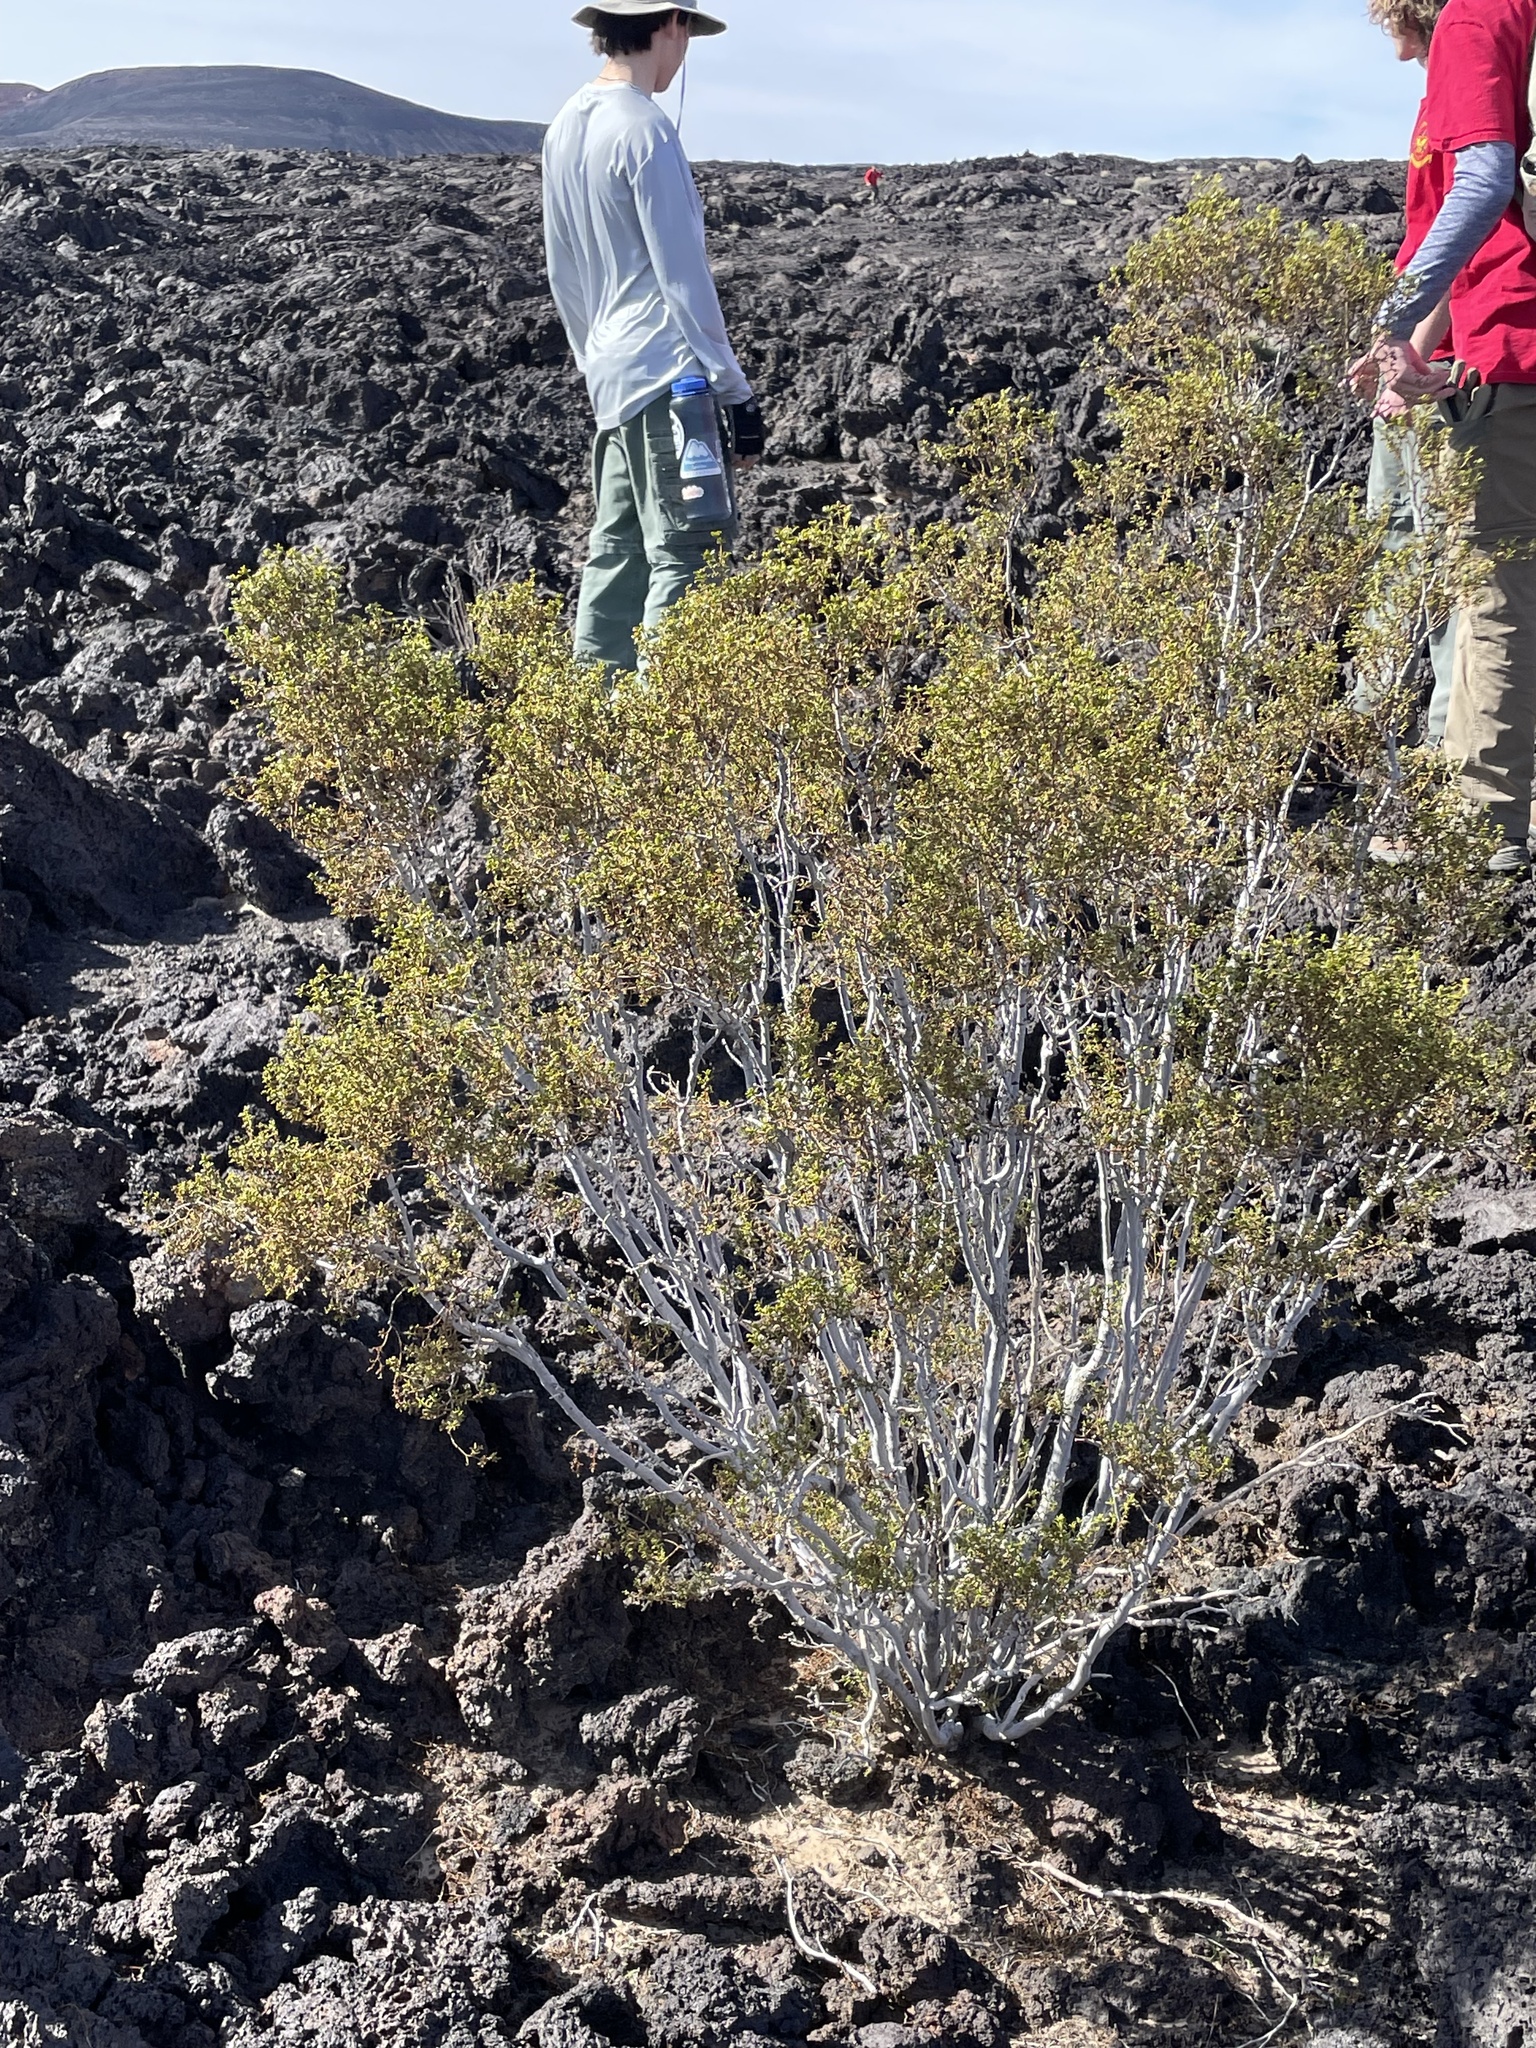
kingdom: Plantae
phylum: Tracheophyta
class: Magnoliopsida
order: Zygophyllales
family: Zygophyllaceae
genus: Larrea
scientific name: Larrea tridentata
